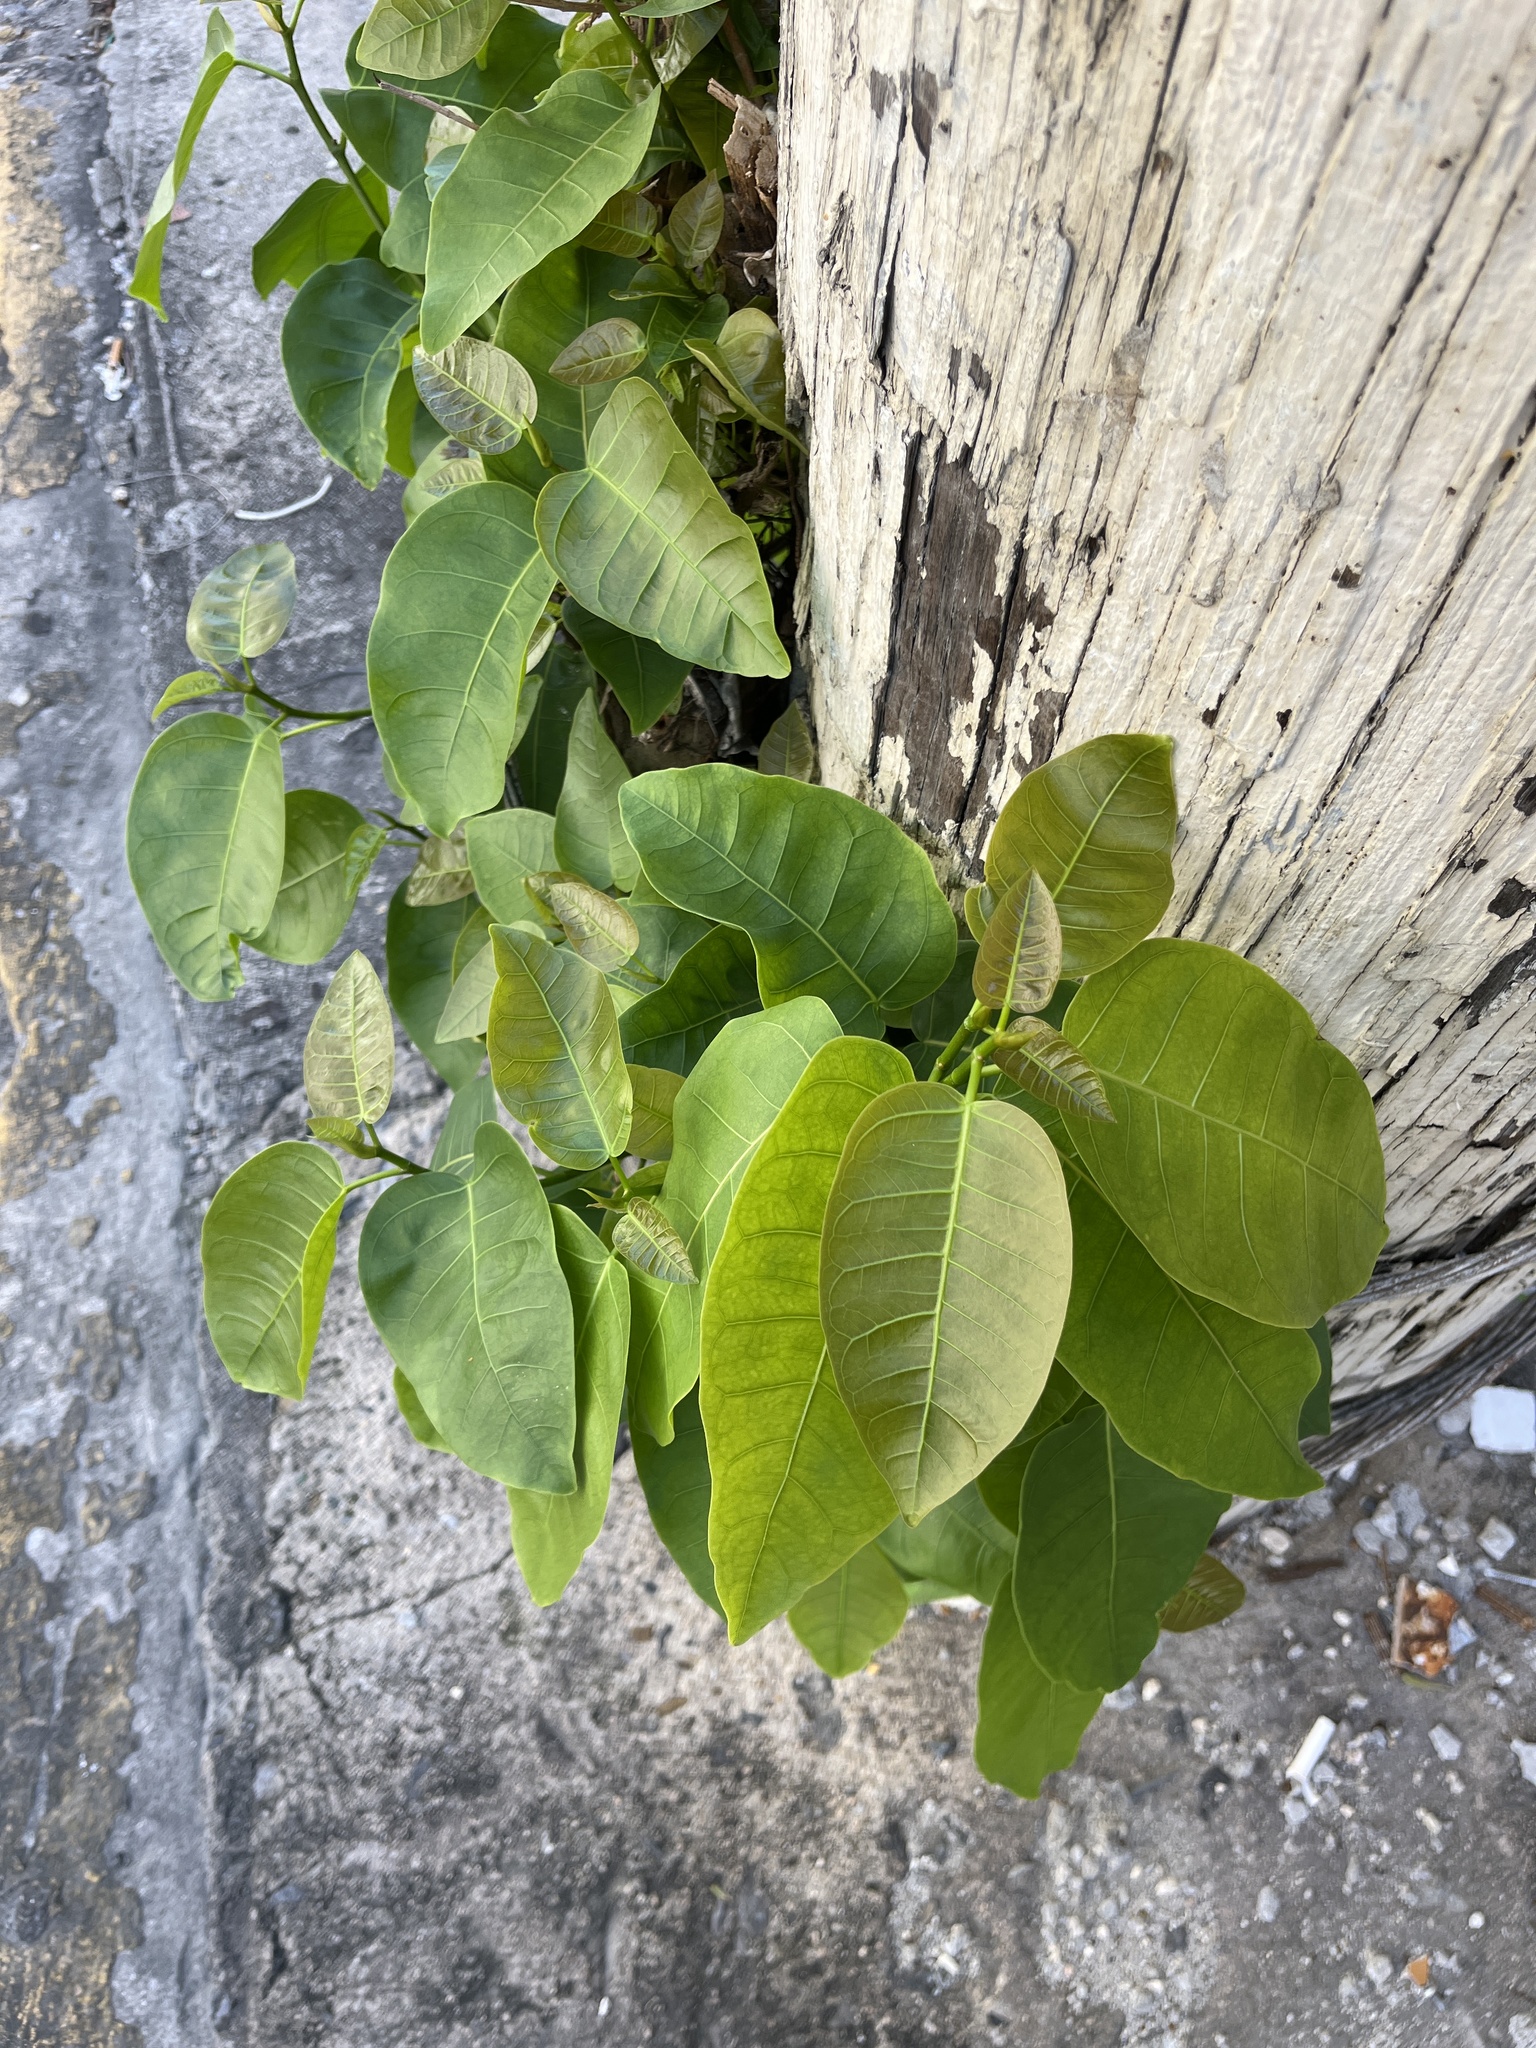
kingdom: Plantae
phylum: Tracheophyta
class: Magnoliopsida
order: Rosales
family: Moraceae
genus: Ficus
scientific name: Ficus citrifolia
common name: Strangler fig
